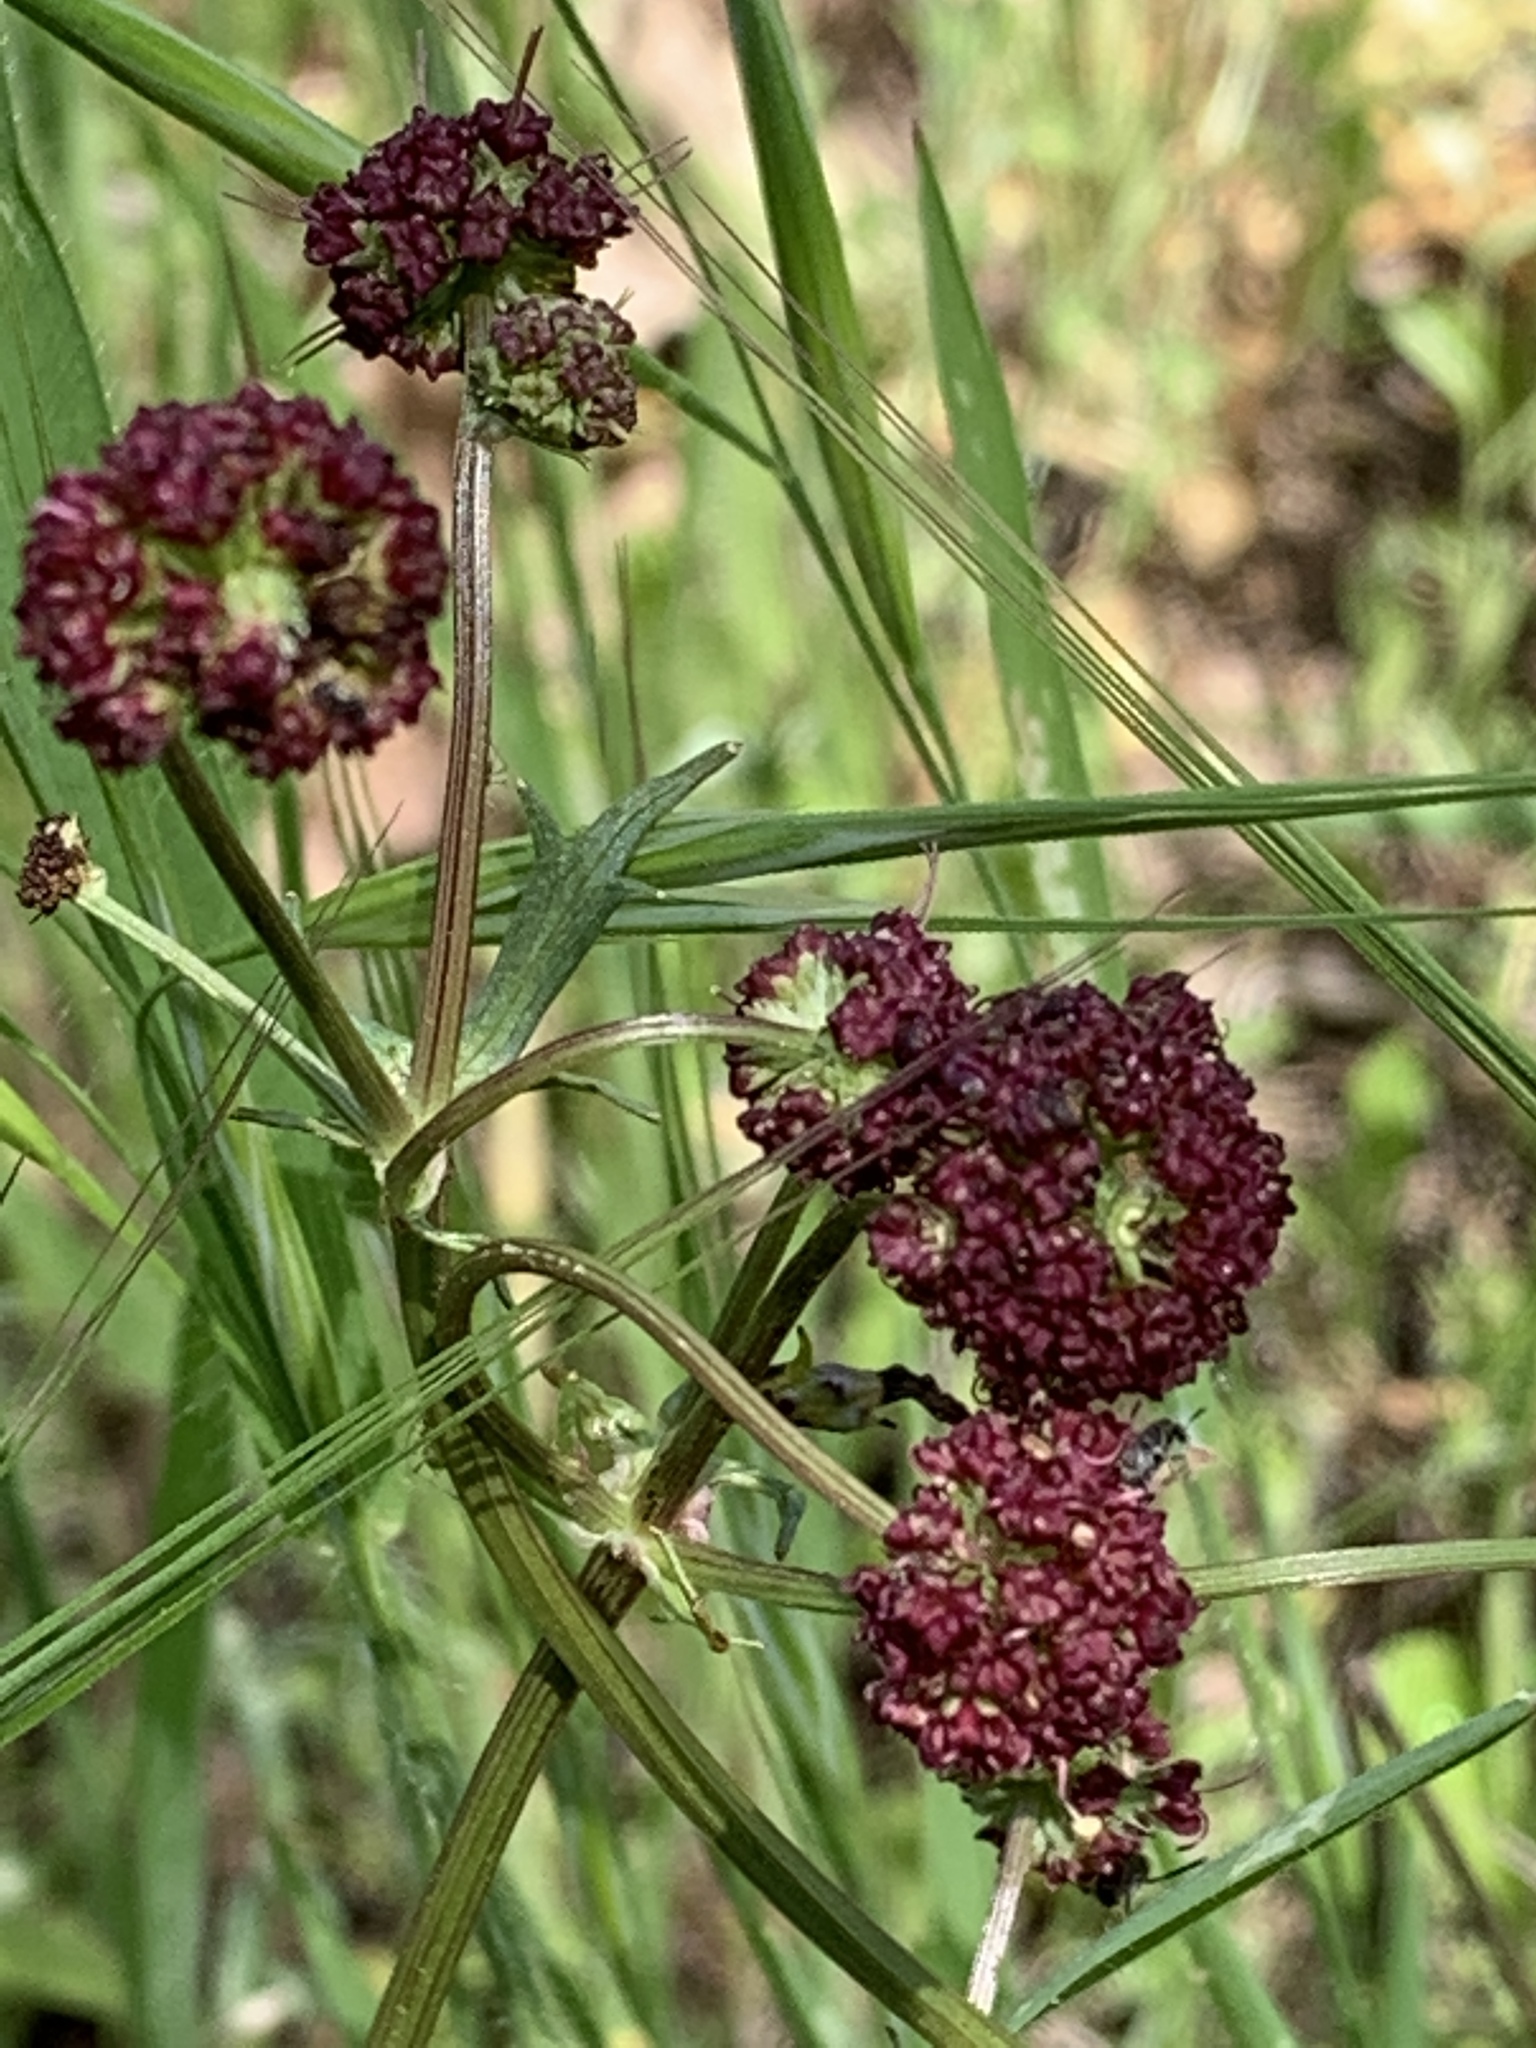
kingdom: Plantae
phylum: Tracheophyta
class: Magnoliopsida
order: Apiales
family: Apiaceae
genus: Sanicula
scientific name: Sanicula bipinnatifida
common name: Shoe-buttons
